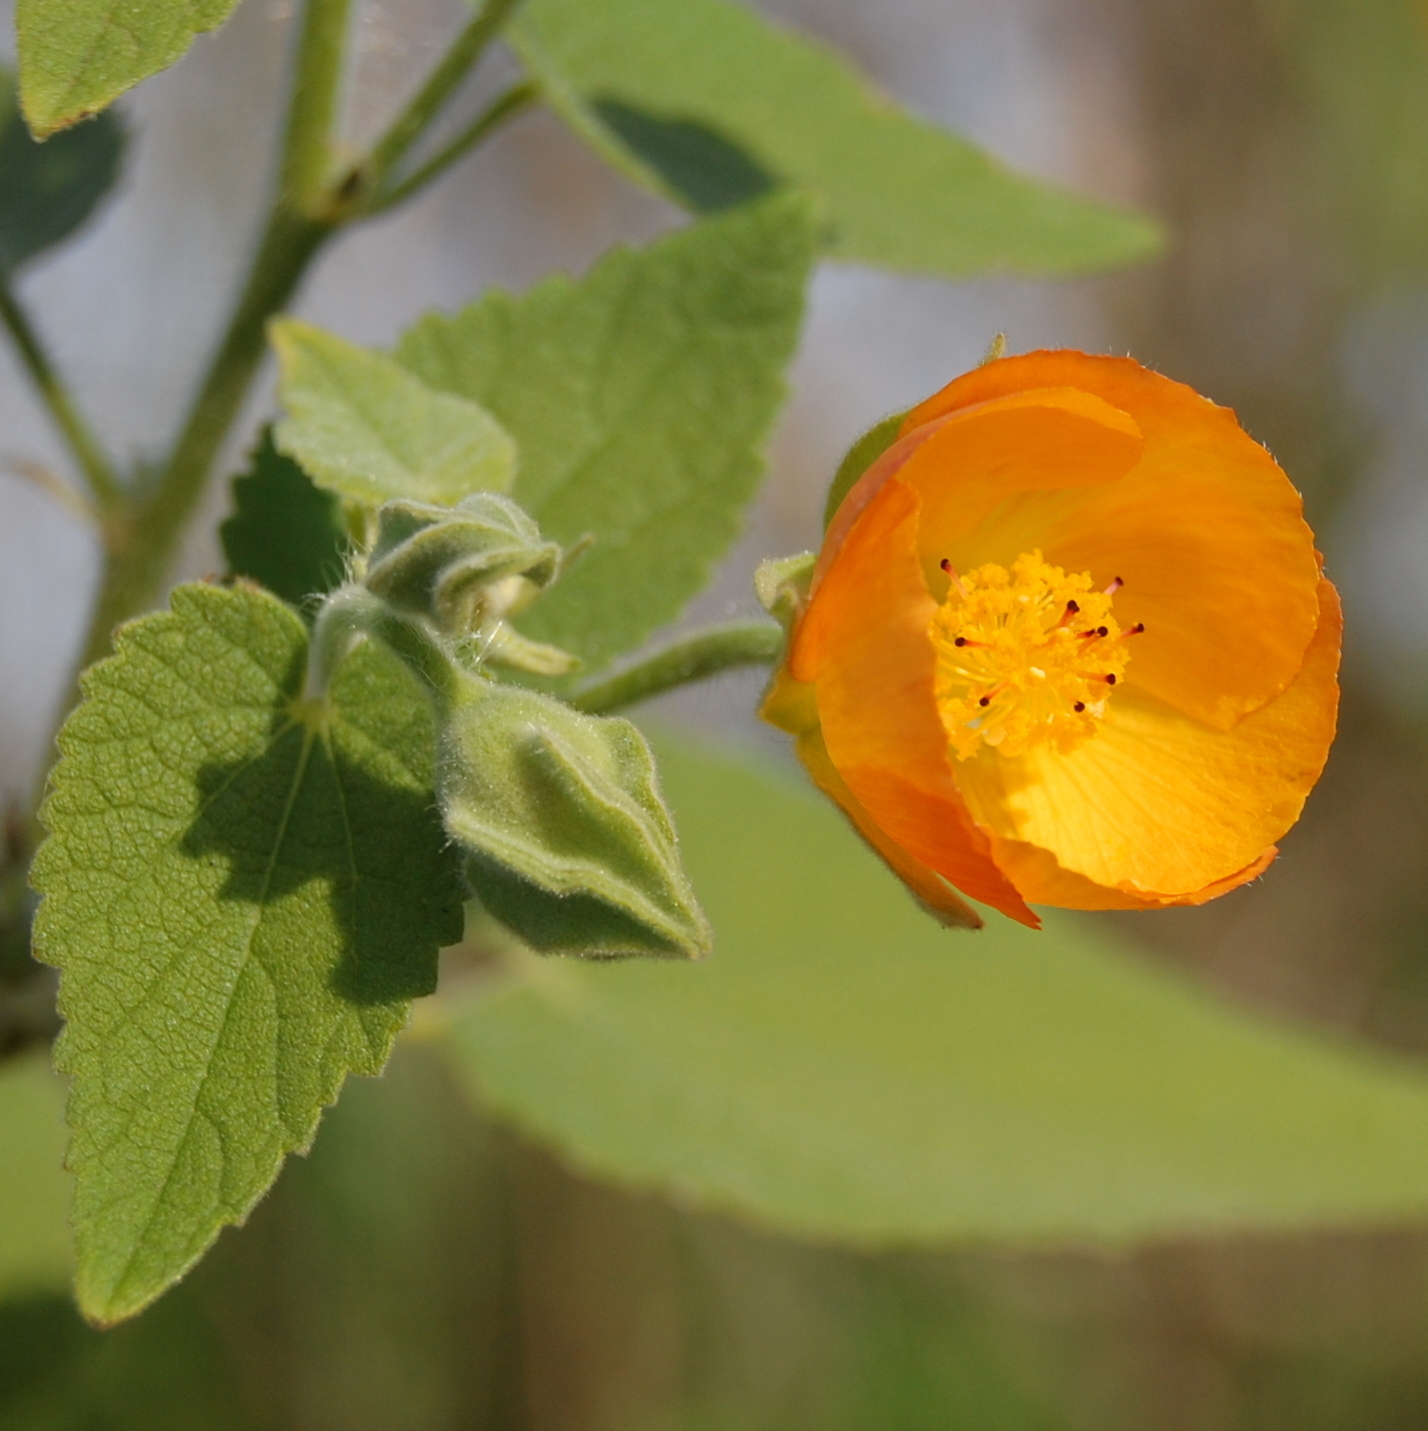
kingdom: Plantae
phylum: Tracheophyta
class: Magnoliopsida
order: Malvales
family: Malvaceae
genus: Abutilon
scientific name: Abutilon grandifolium
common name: Hairy abutilon
